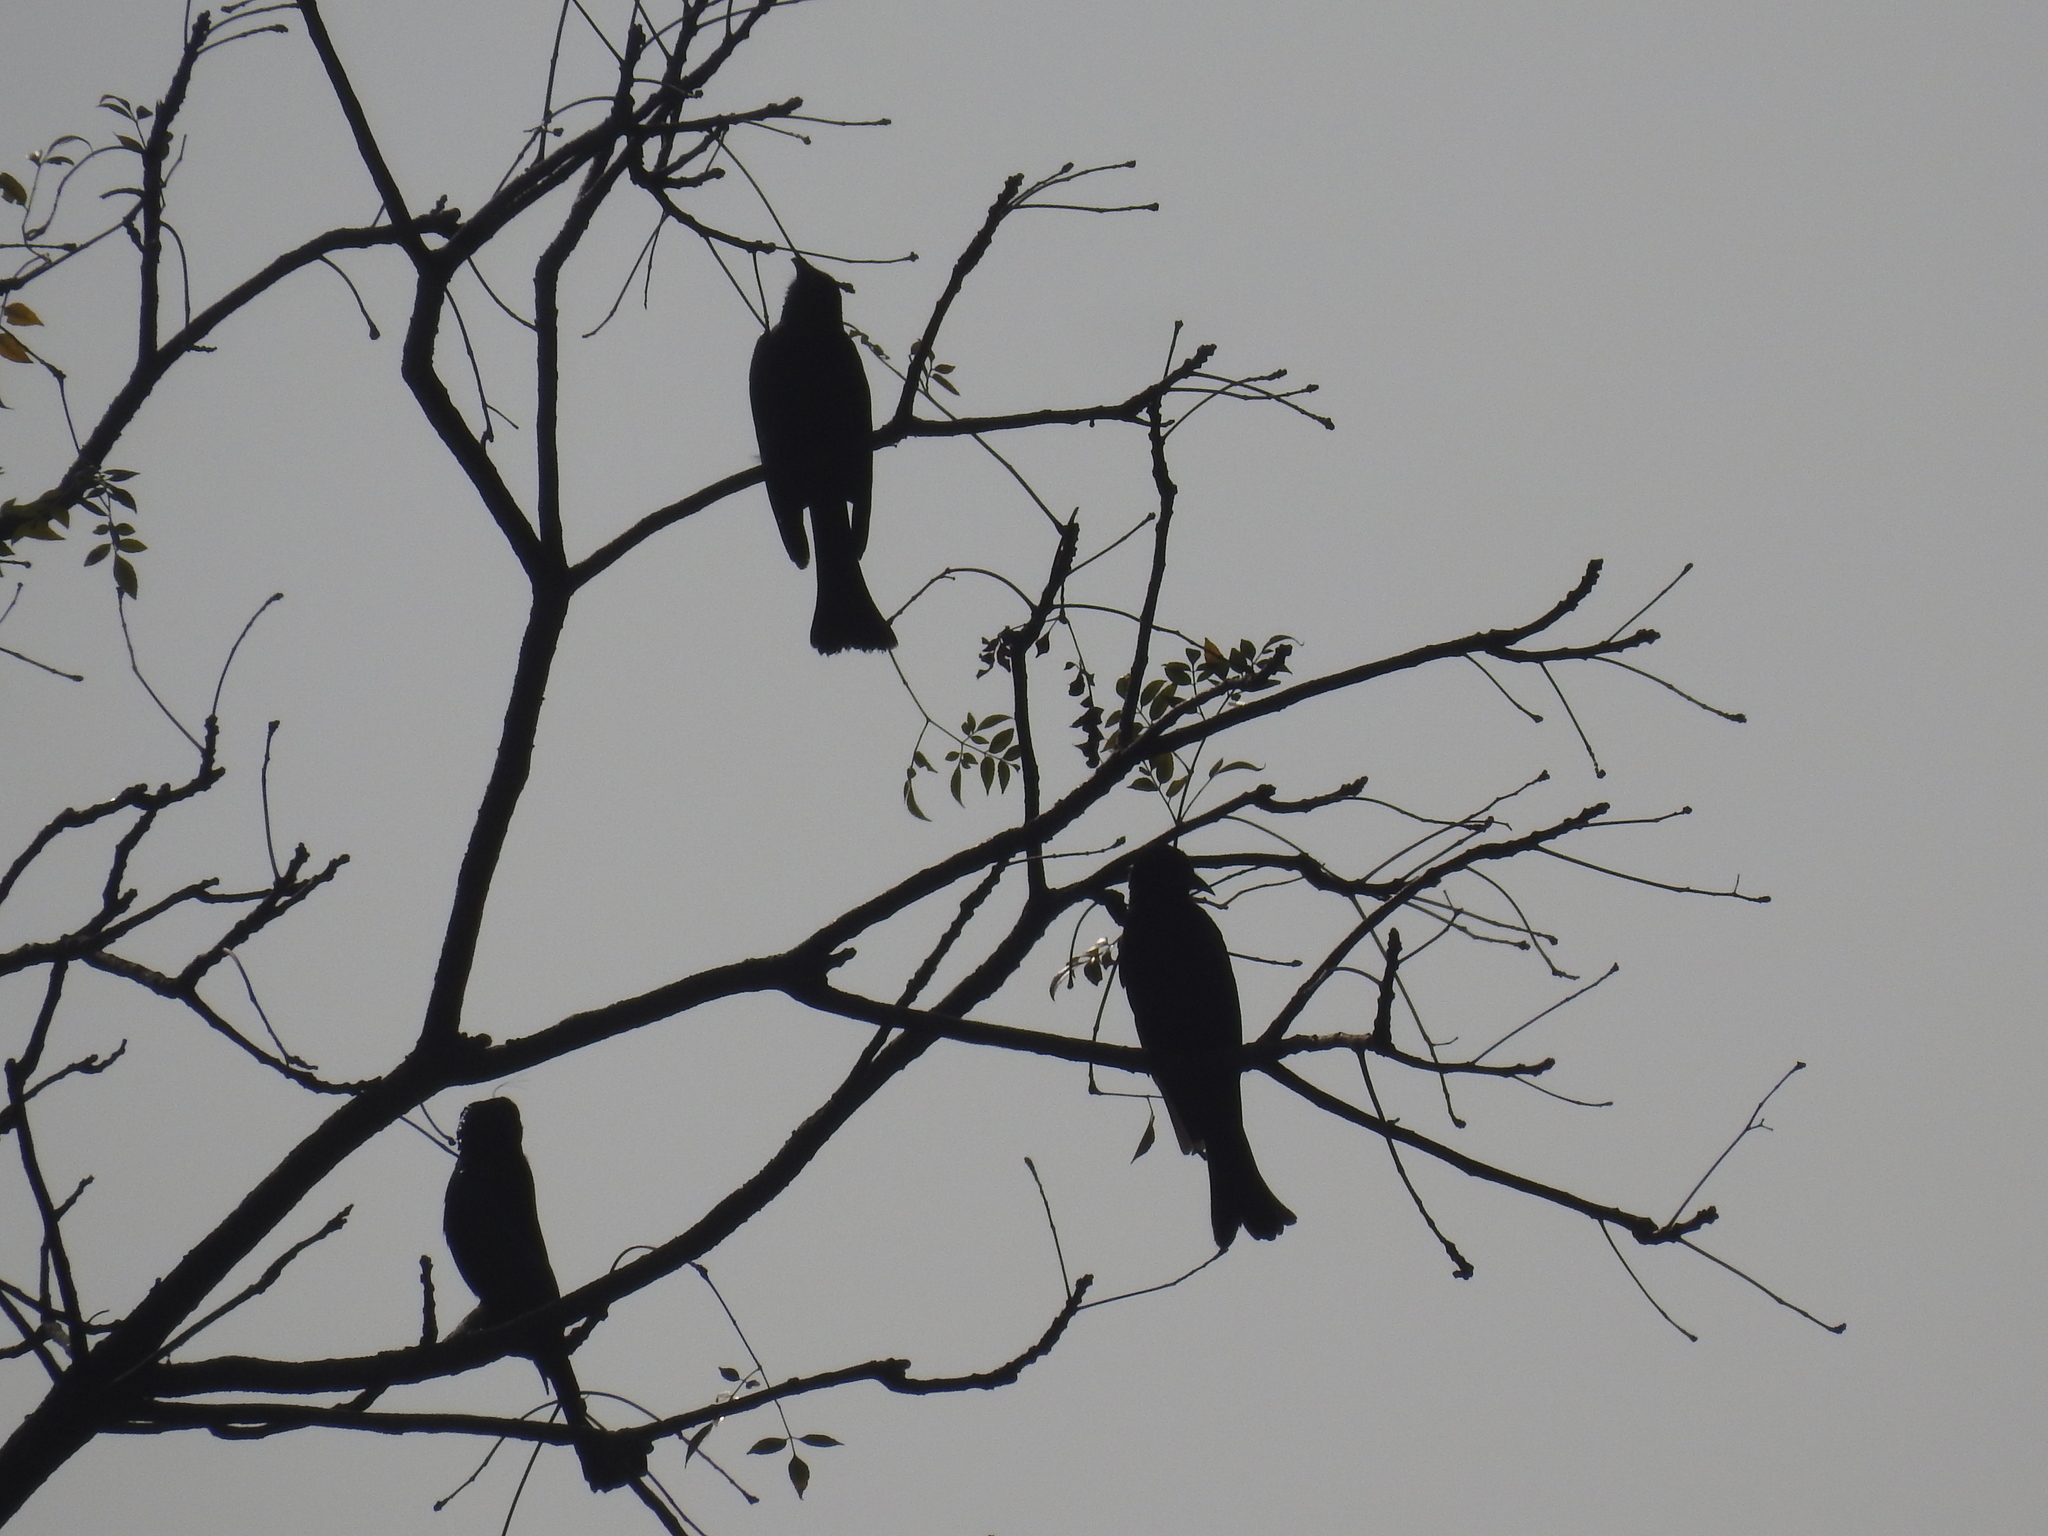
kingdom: Animalia
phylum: Chordata
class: Aves
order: Passeriformes
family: Dicruridae
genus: Dicrurus
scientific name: Dicrurus hottentottus
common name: Hair-crested drongo
